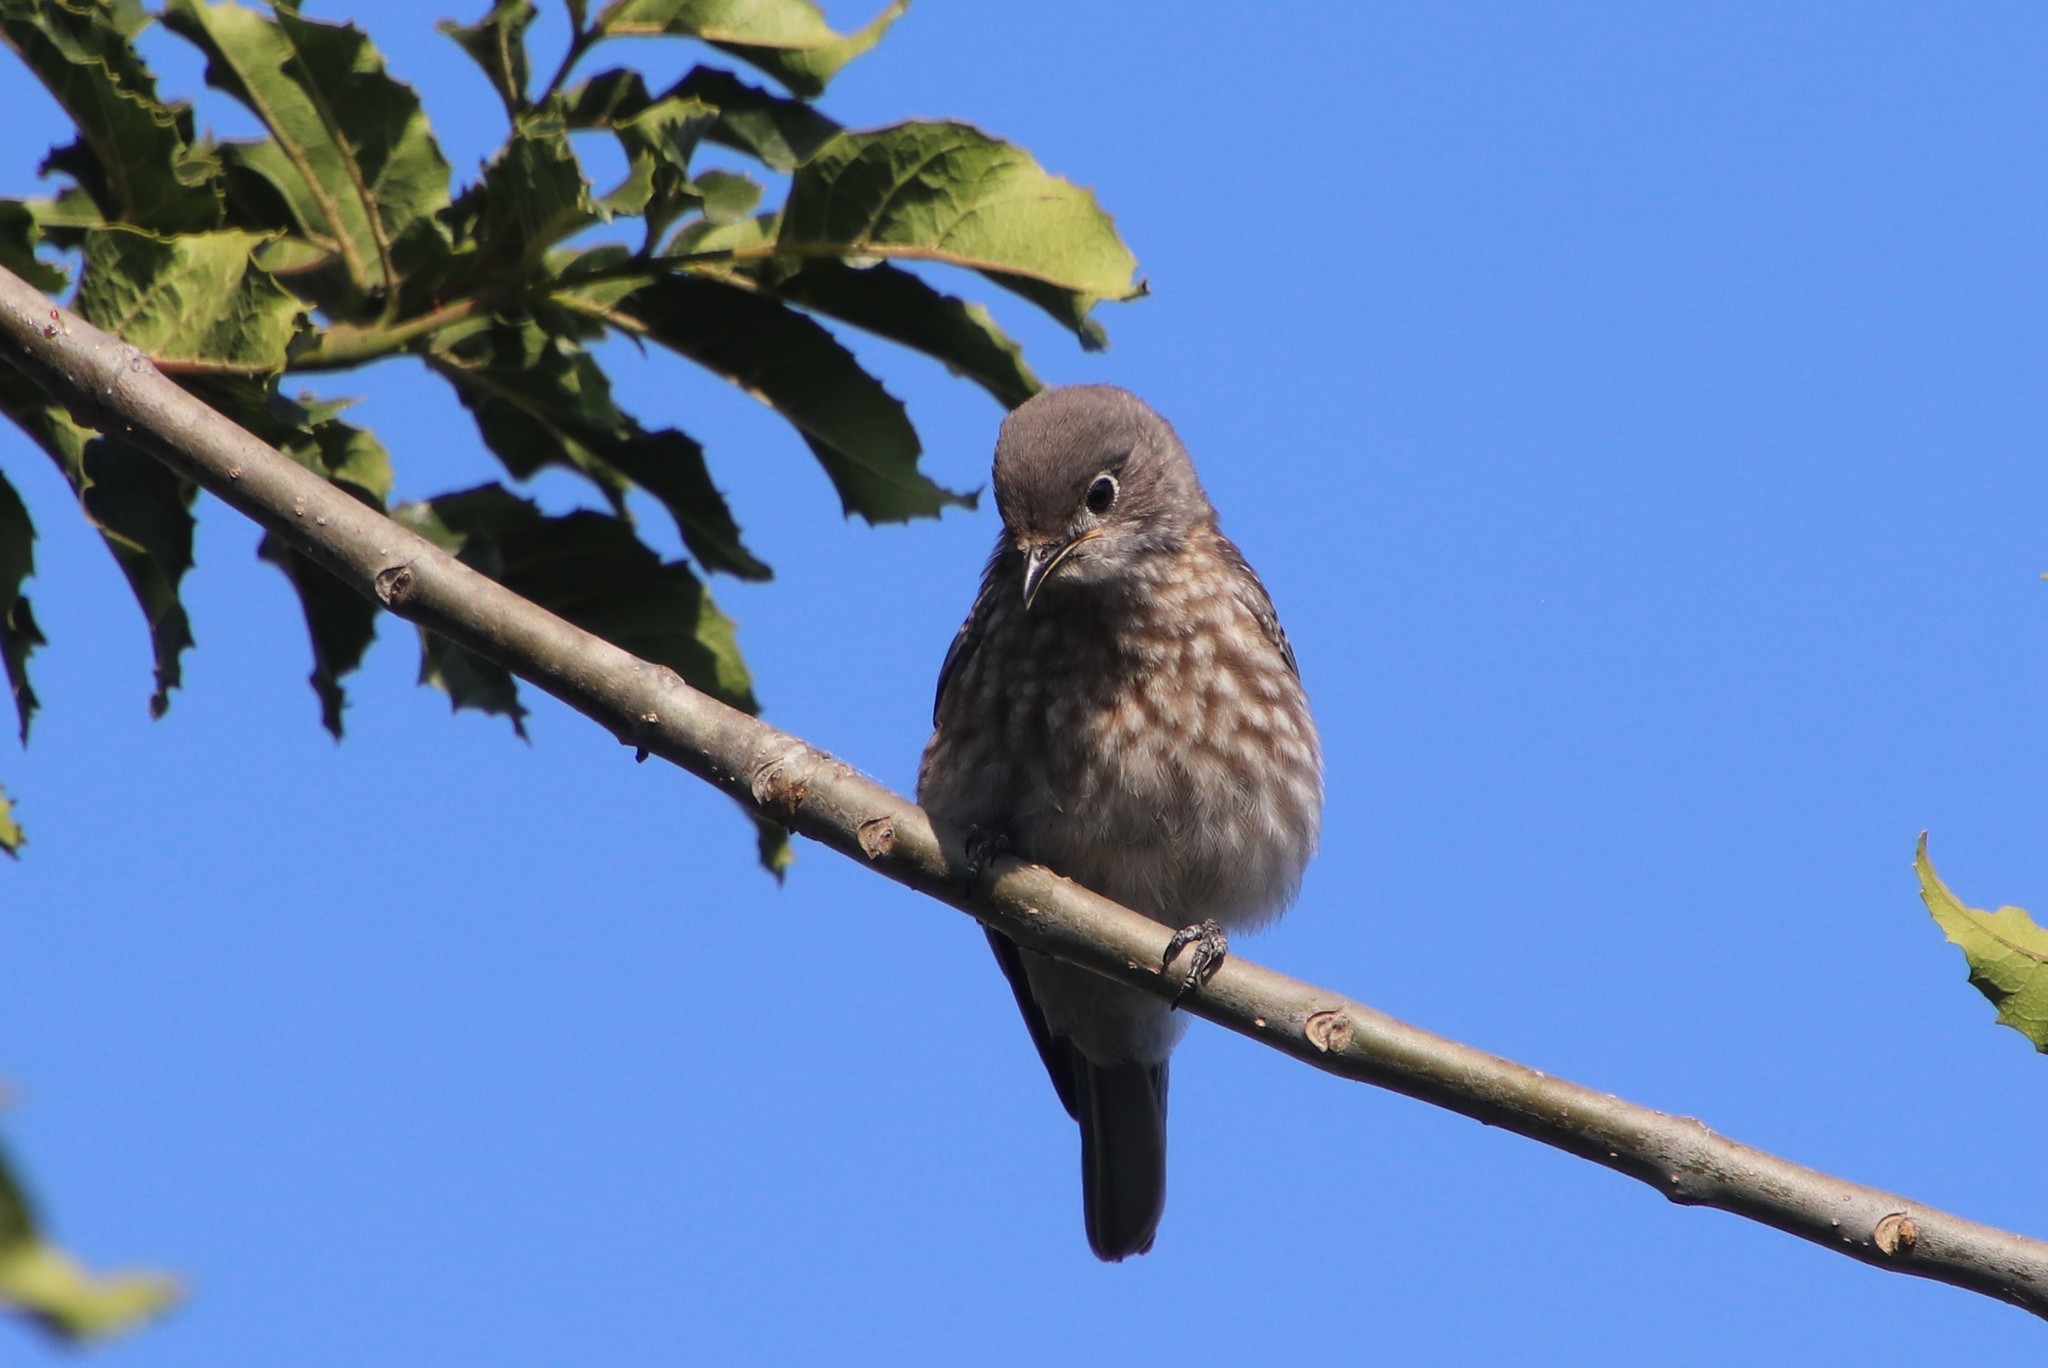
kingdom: Animalia
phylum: Chordata
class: Aves
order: Passeriformes
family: Turdidae
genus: Sialia
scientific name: Sialia mexicana
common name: Western bluebird
